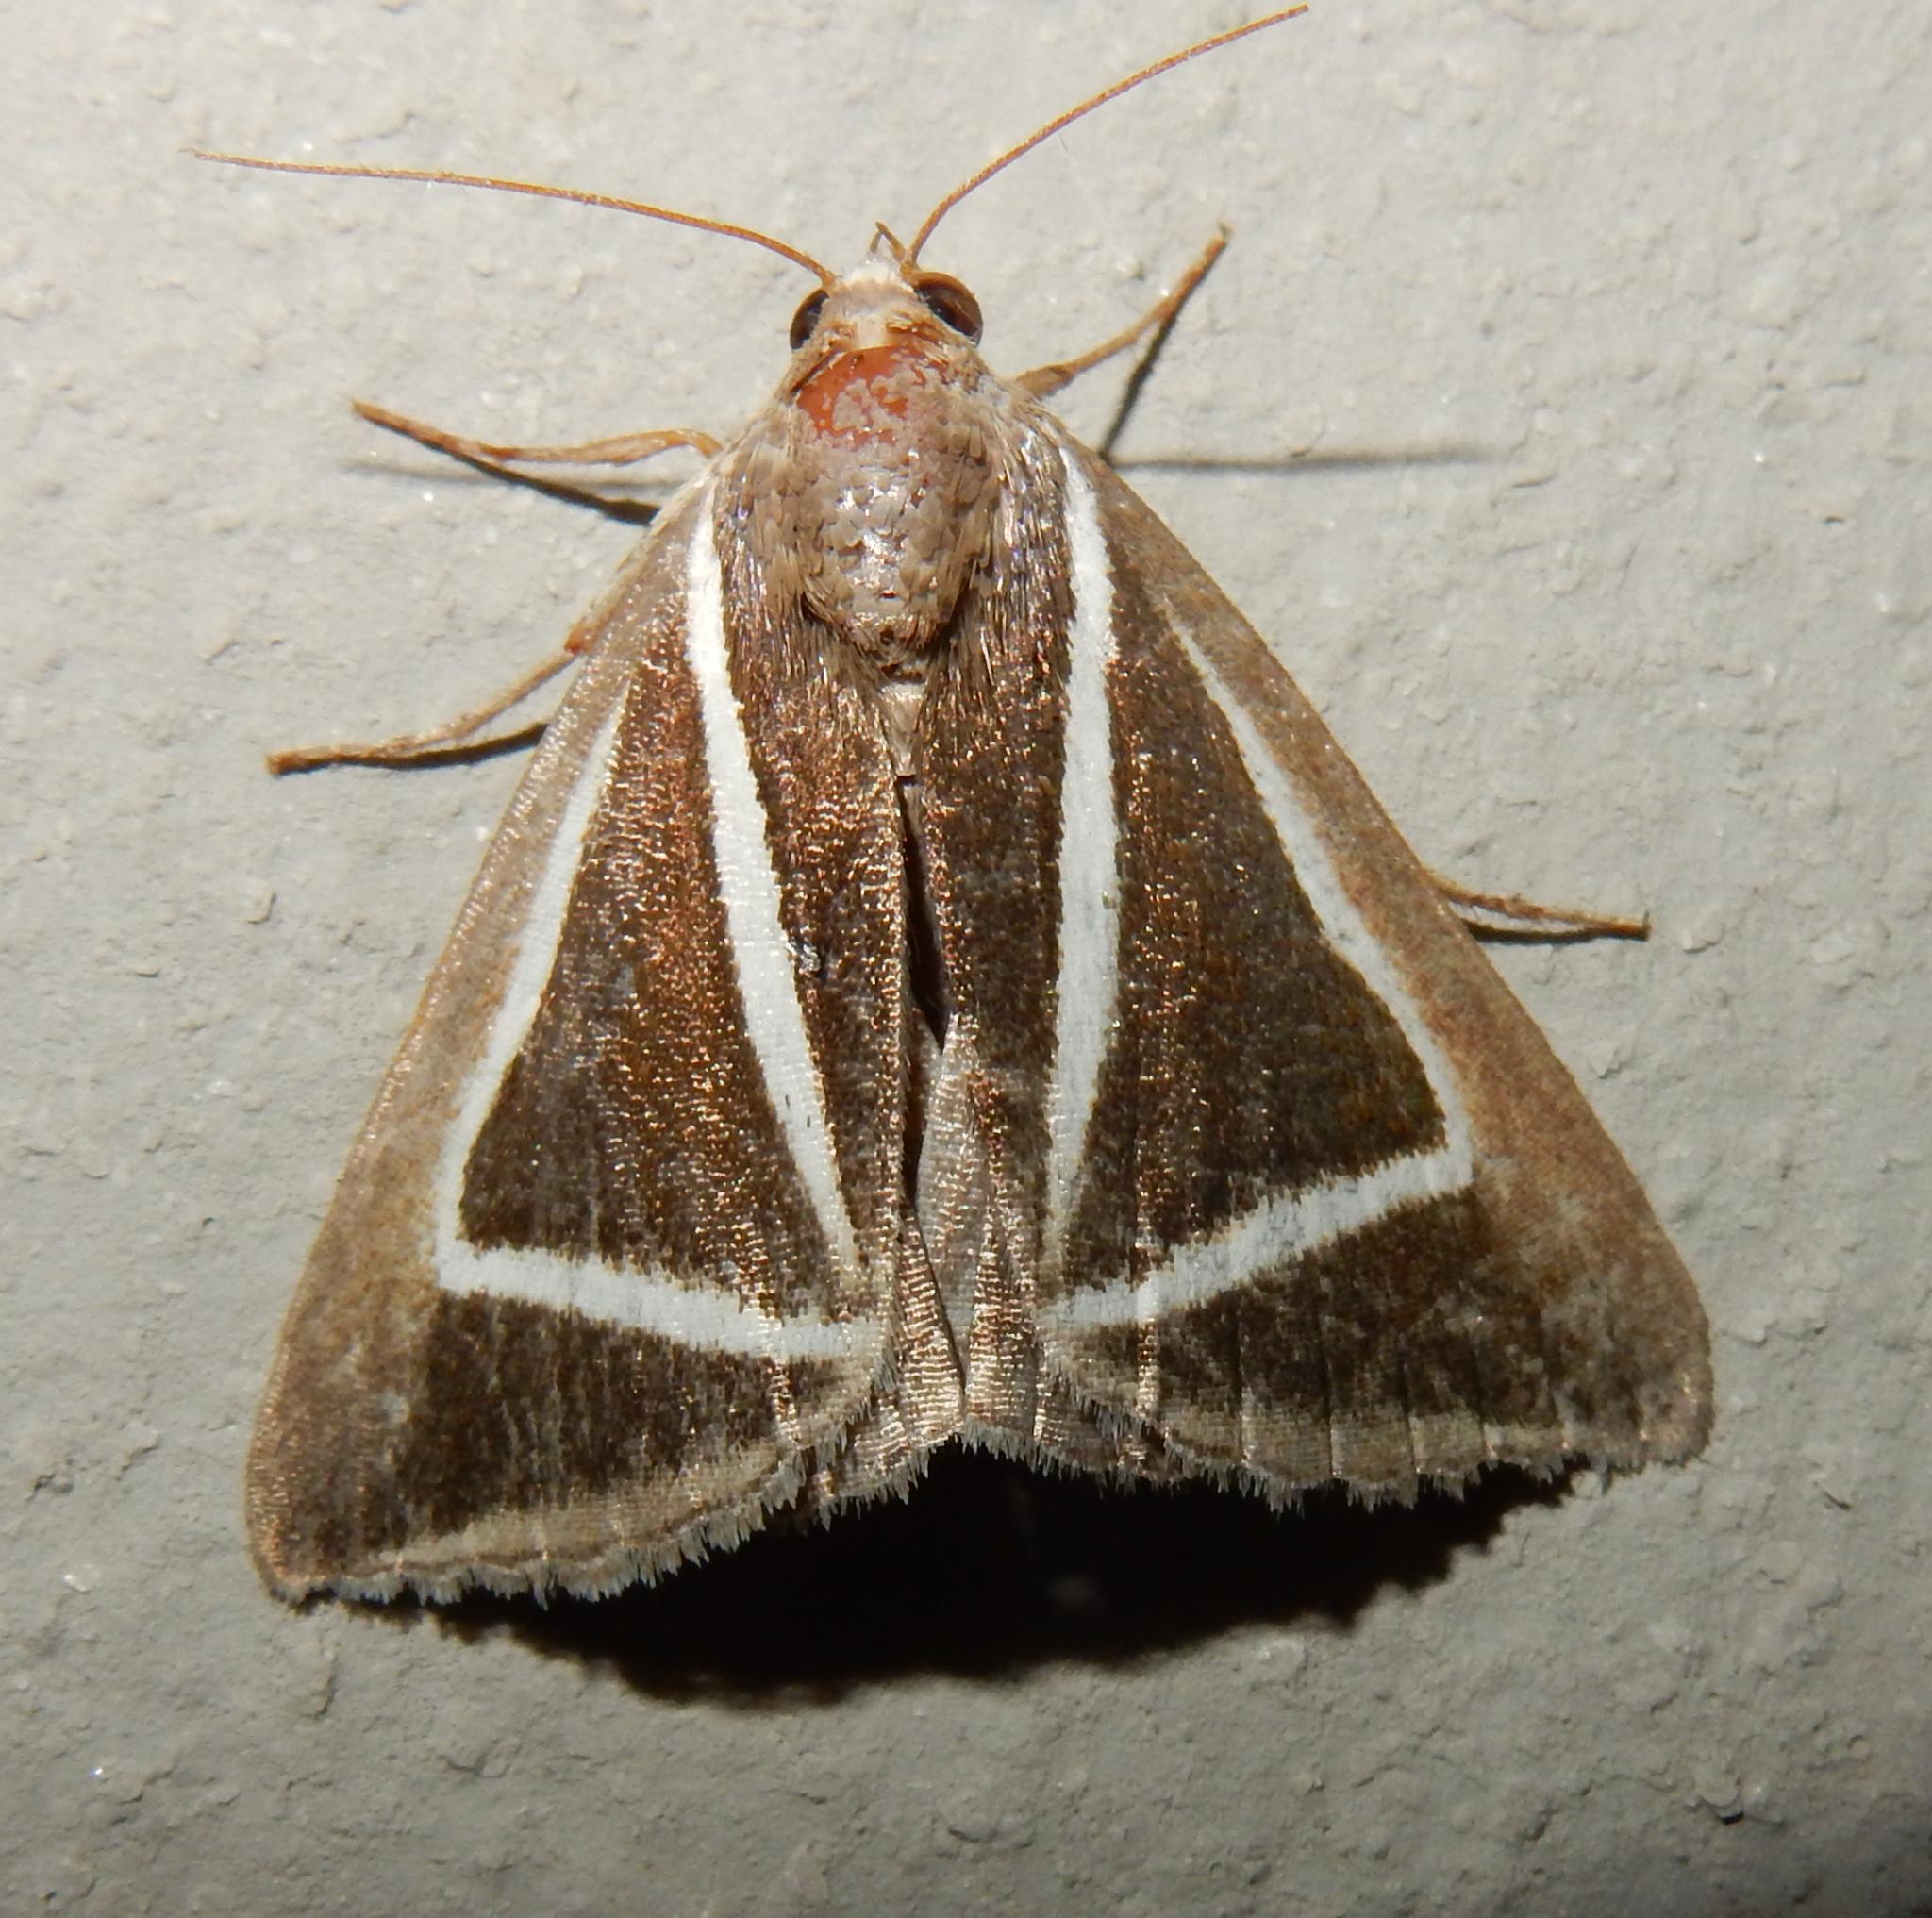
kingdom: Animalia
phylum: Arthropoda
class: Insecta
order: Lepidoptera
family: Erebidae
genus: Chalciope
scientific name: Chalciope delta
